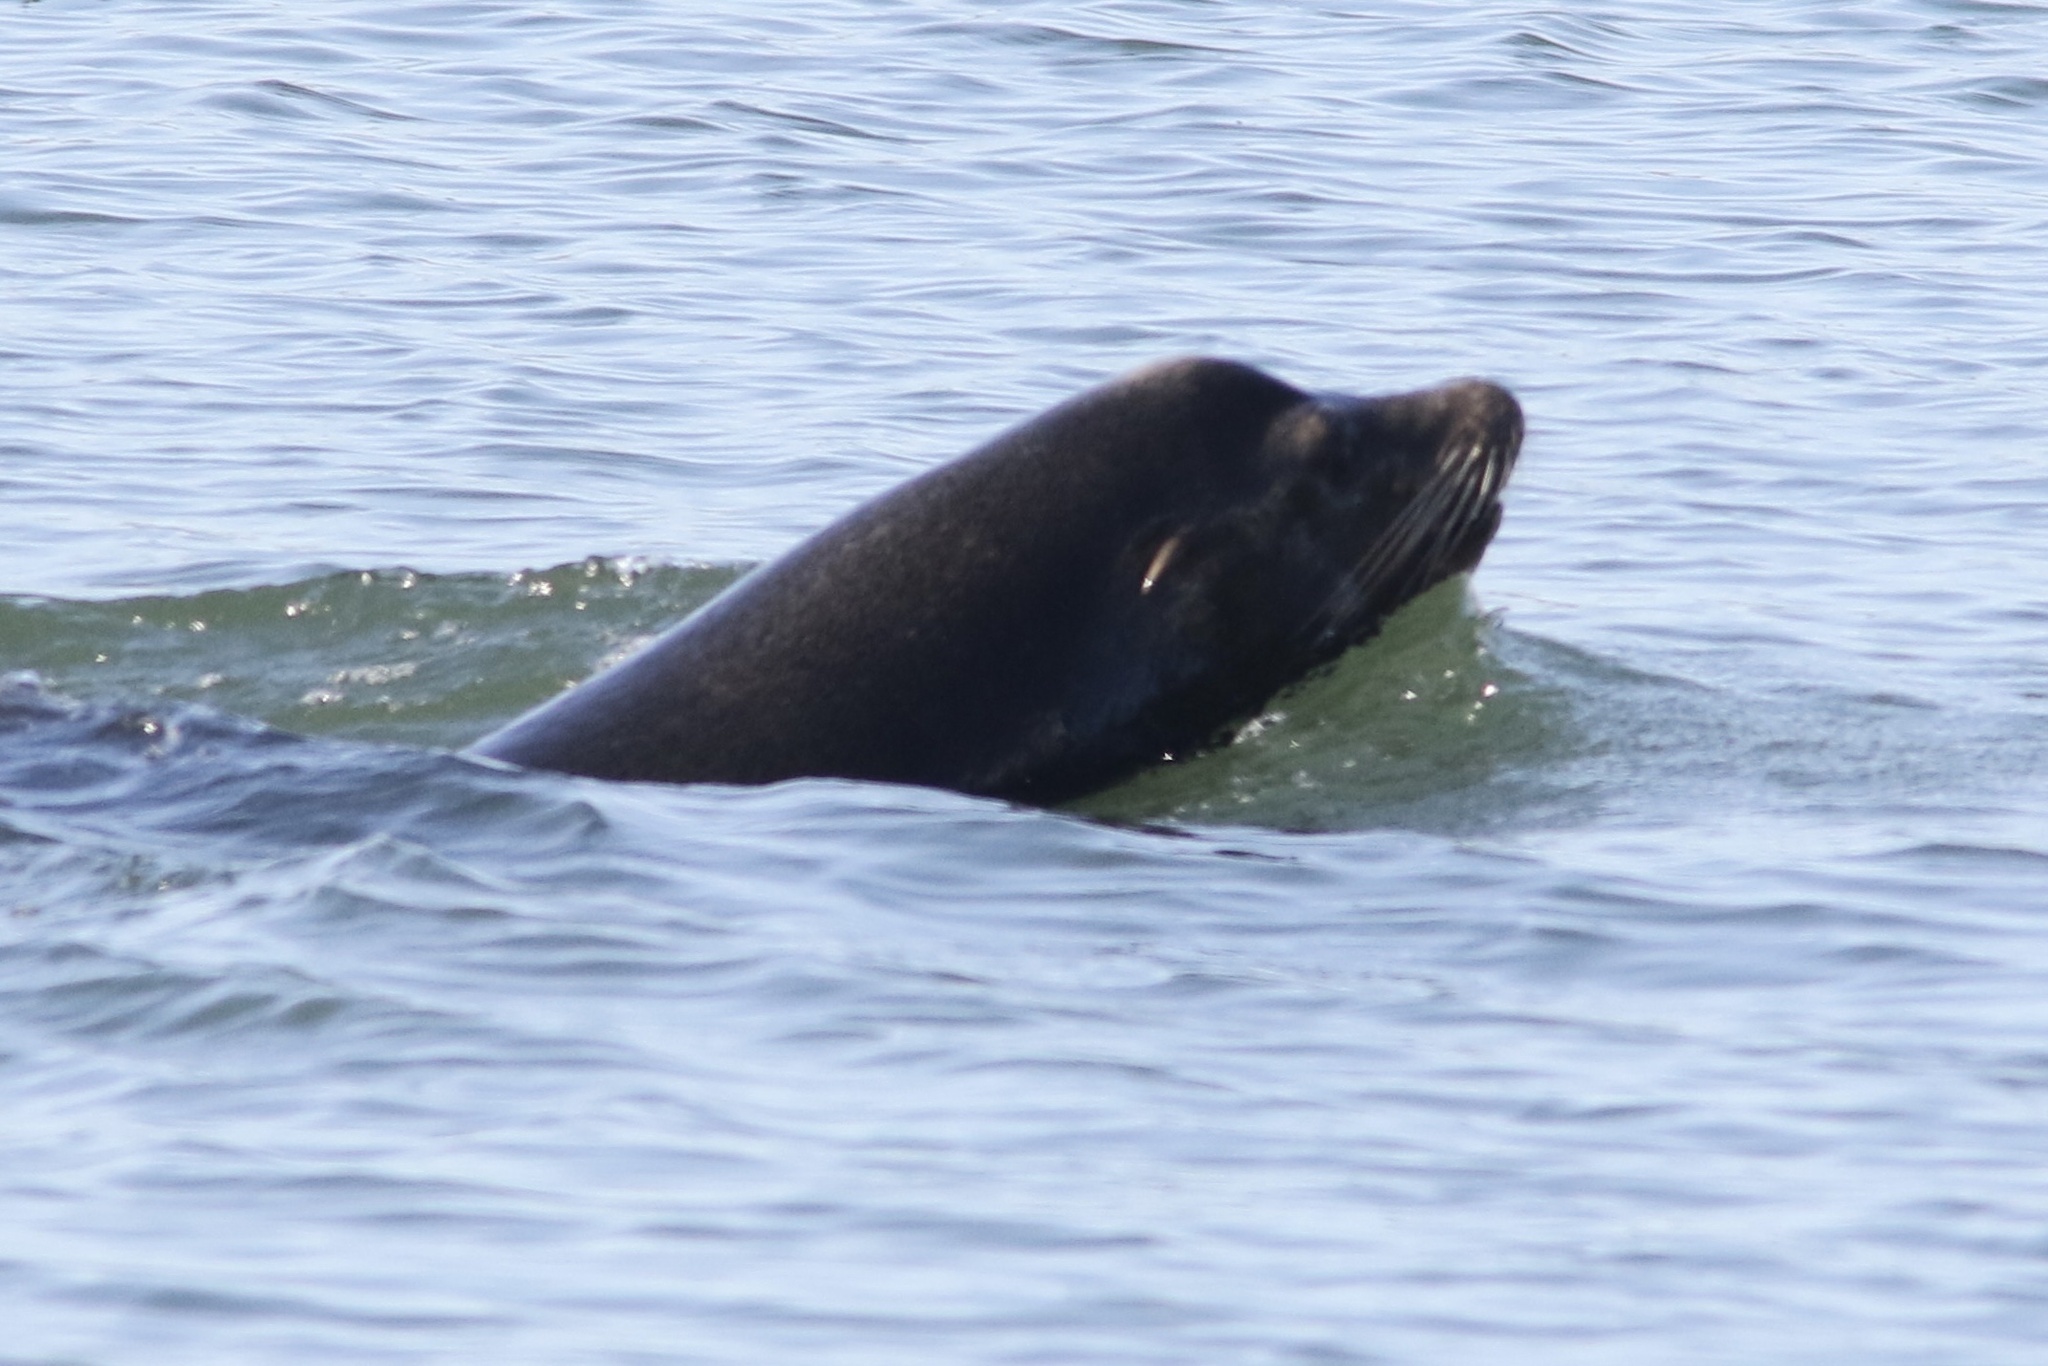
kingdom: Animalia
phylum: Chordata
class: Mammalia
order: Carnivora
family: Otariidae
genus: Zalophus
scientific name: Zalophus californianus
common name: California sea lion
